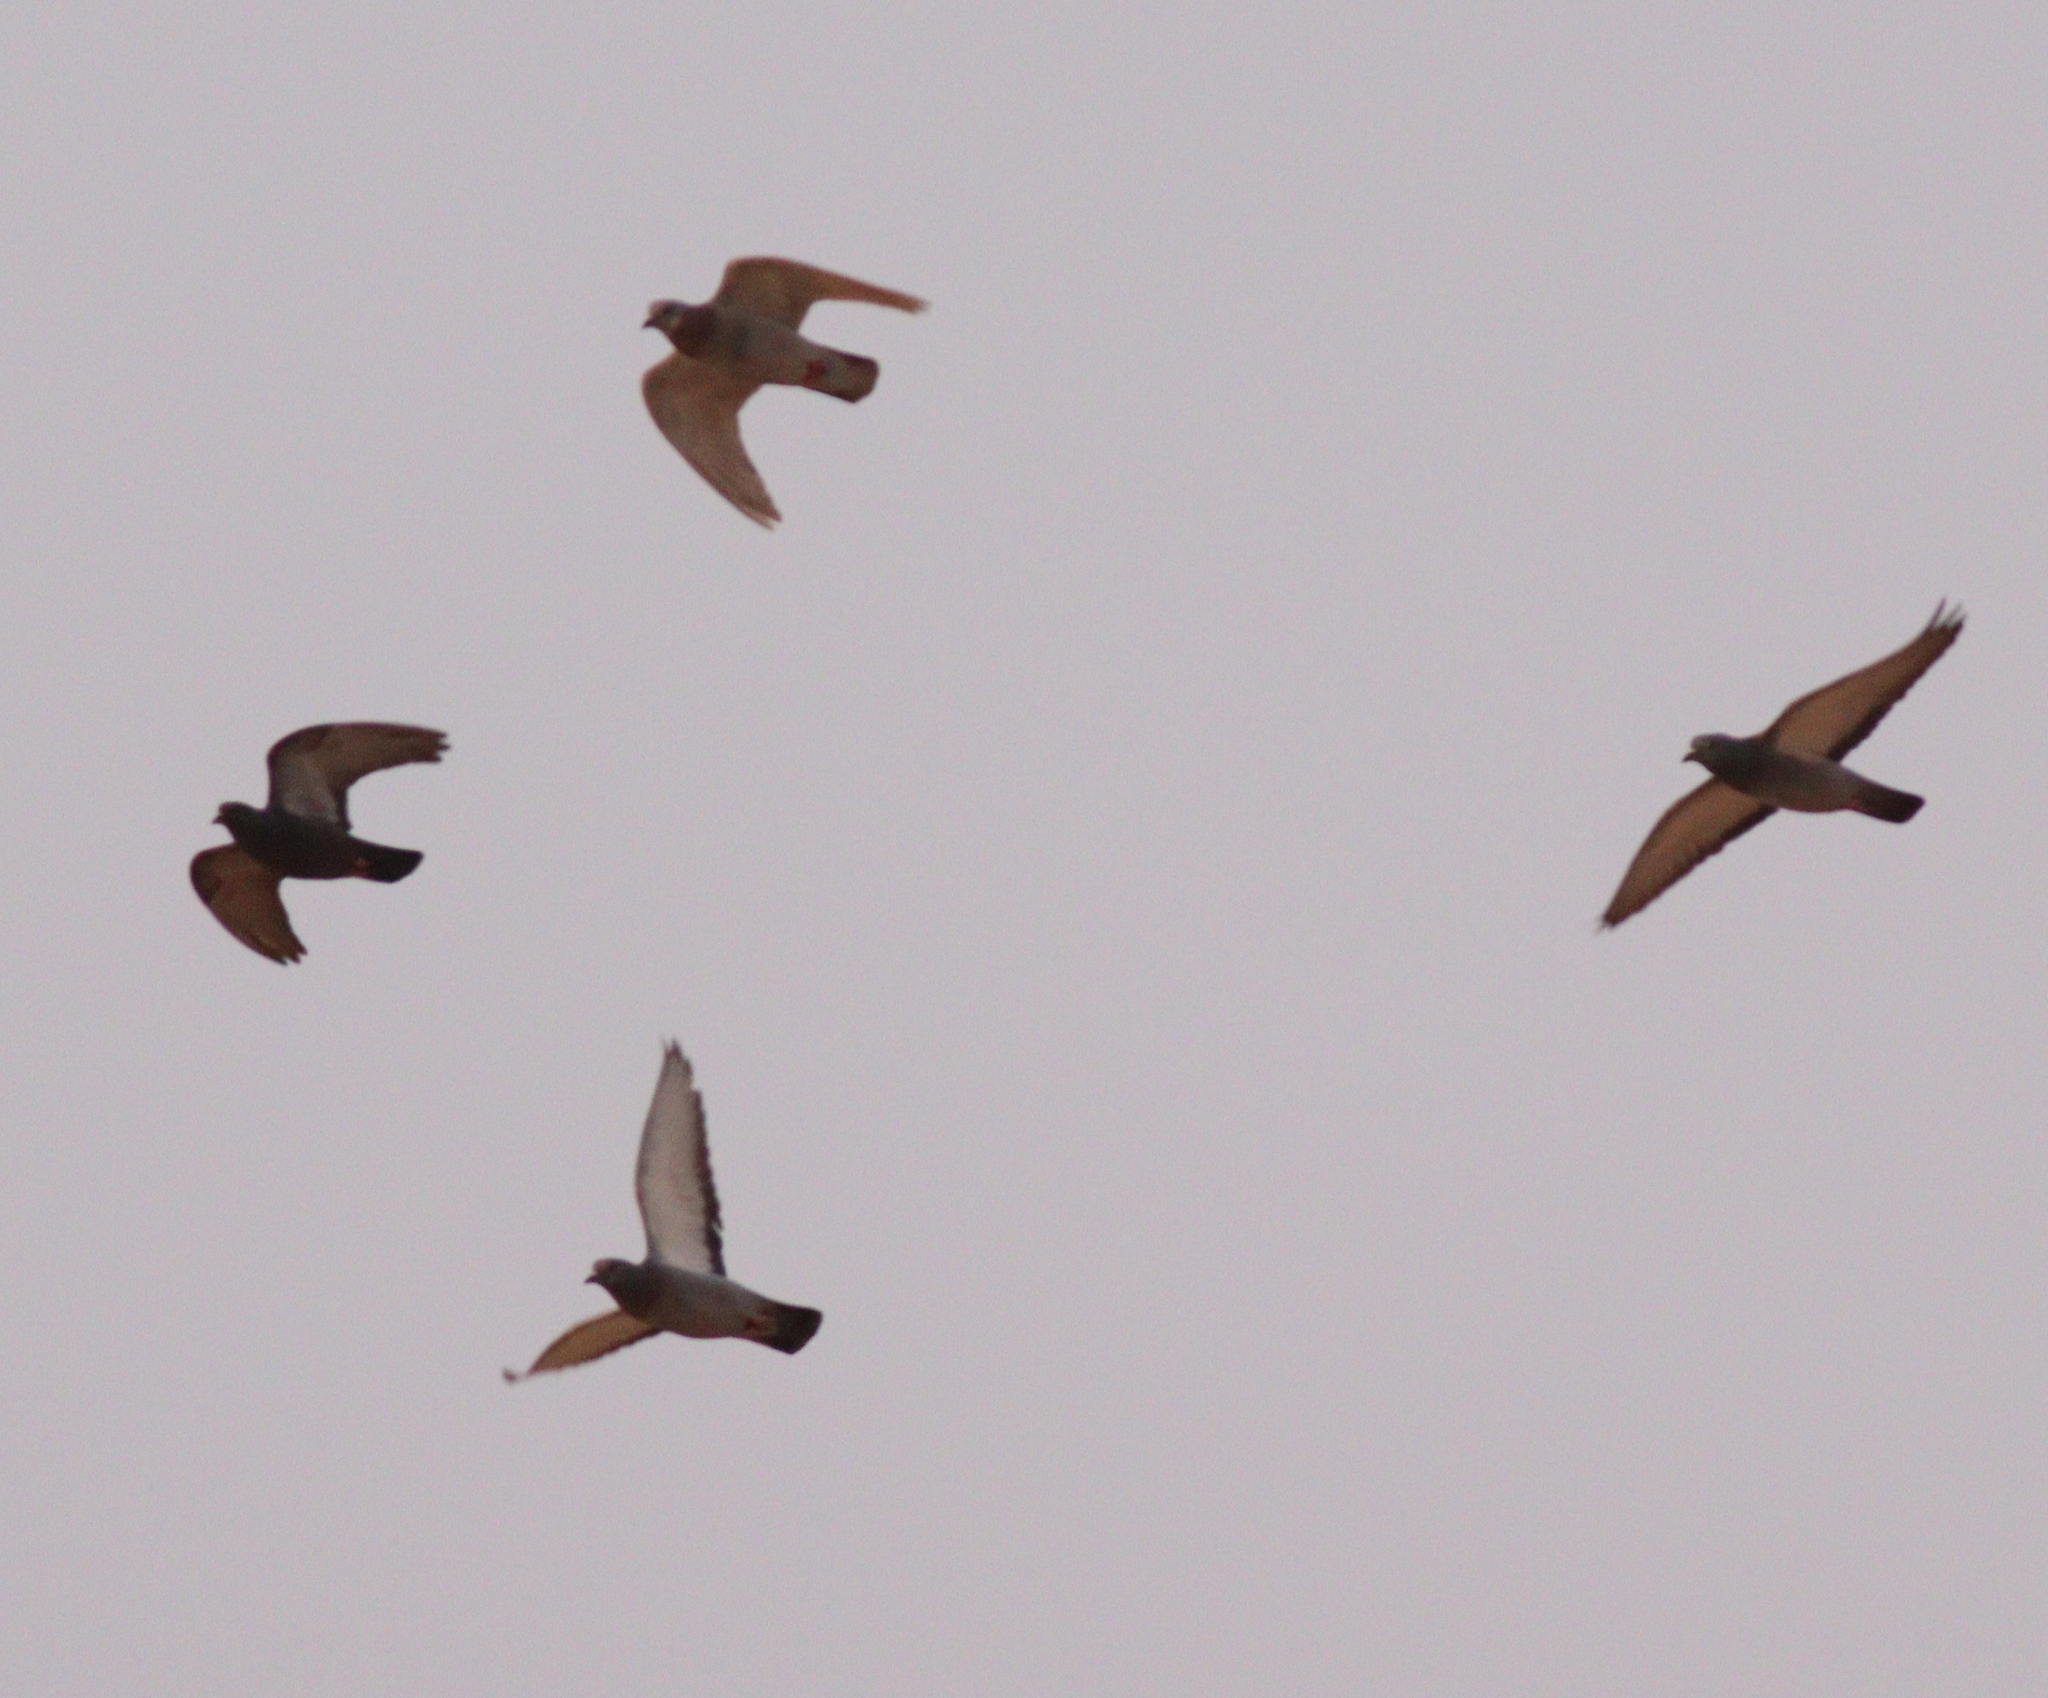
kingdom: Animalia
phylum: Chordata
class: Aves
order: Columbiformes
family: Columbidae
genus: Columba
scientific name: Columba livia
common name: Rock pigeon
